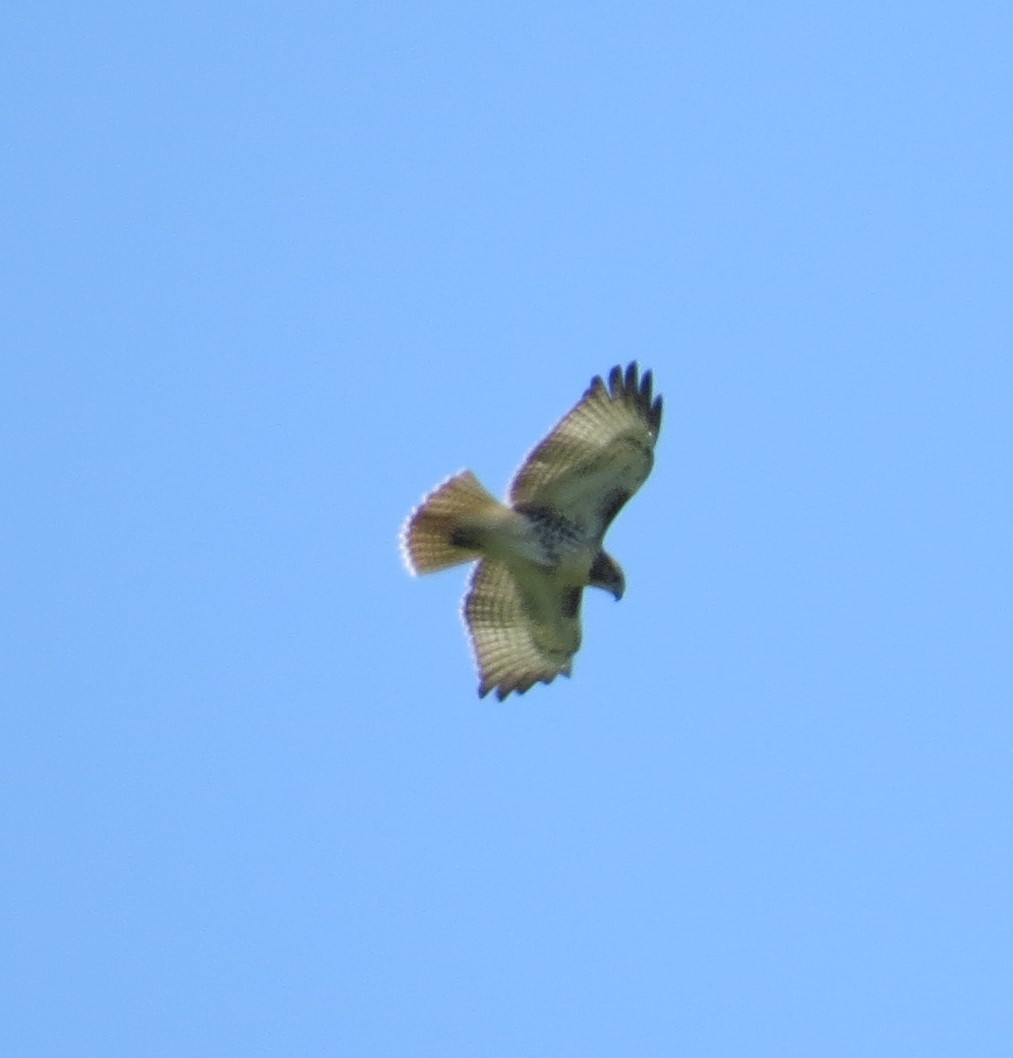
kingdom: Animalia
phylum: Chordata
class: Aves
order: Accipitriformes
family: Accipitridae
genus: Buteo
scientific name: Buteo jamaicensis
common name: Red-tailed hawk
